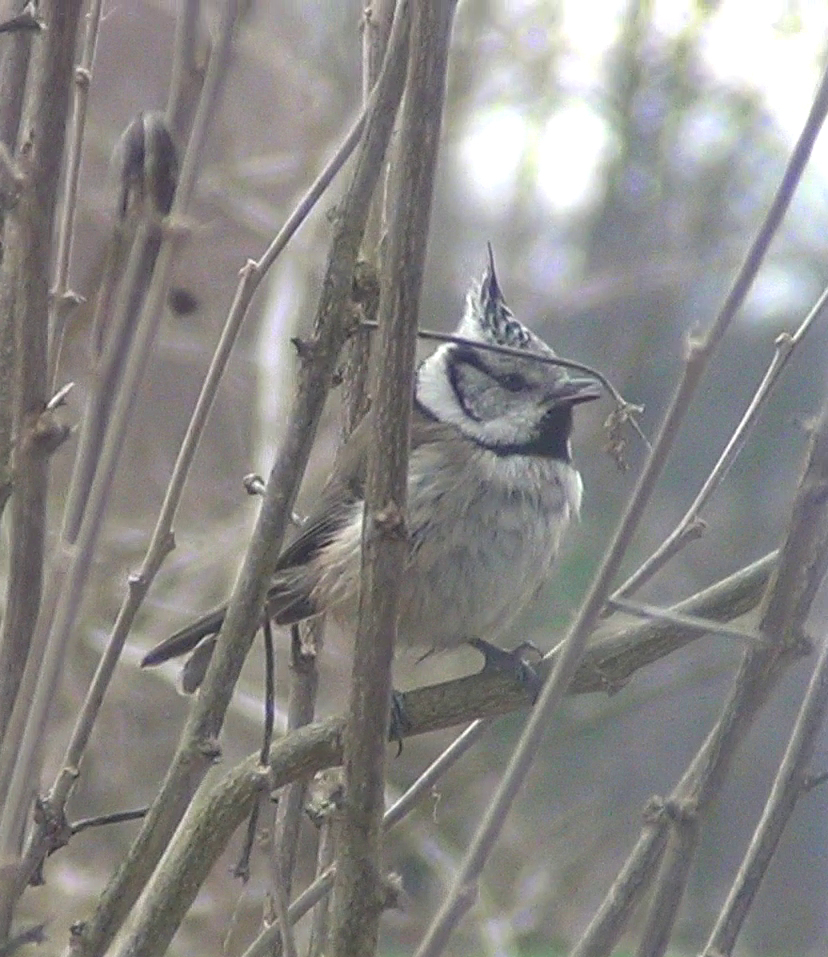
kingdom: Animalia
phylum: Chordata
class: Aves
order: Passeriformes
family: Paridae
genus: Lophophanes
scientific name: Lophophanes cristatus
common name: European crested tit
